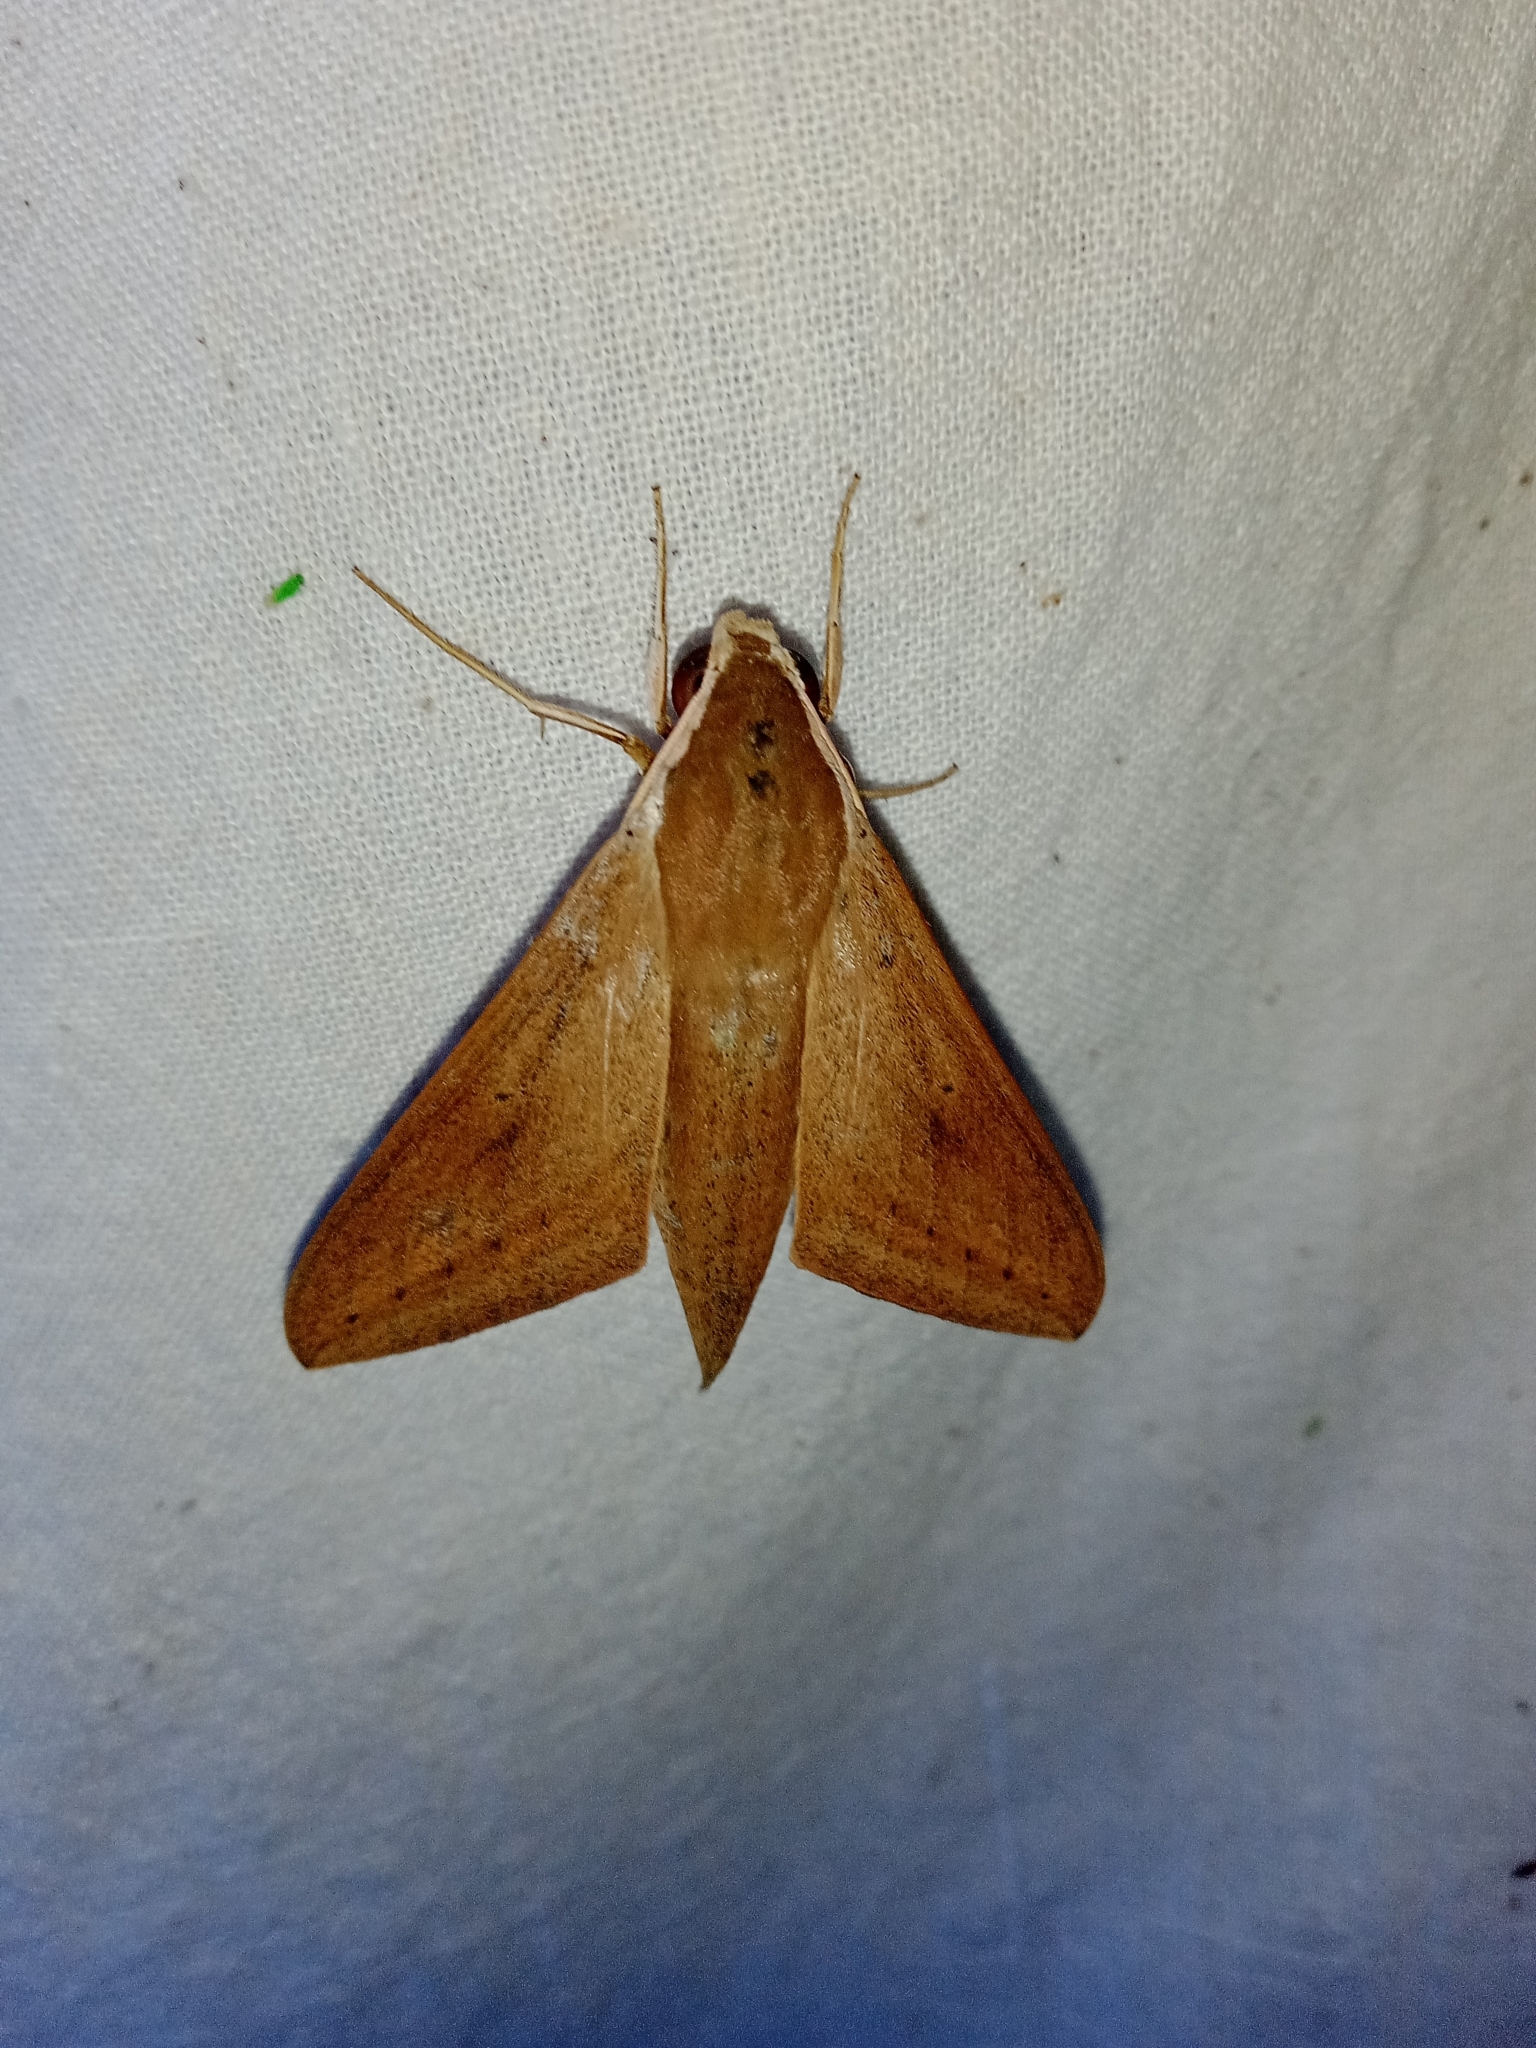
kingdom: Animalia
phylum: Arthropoda
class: Insecta
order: Lepidoptera
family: Sphingidae
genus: Theretra
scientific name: Theretra rhesus
